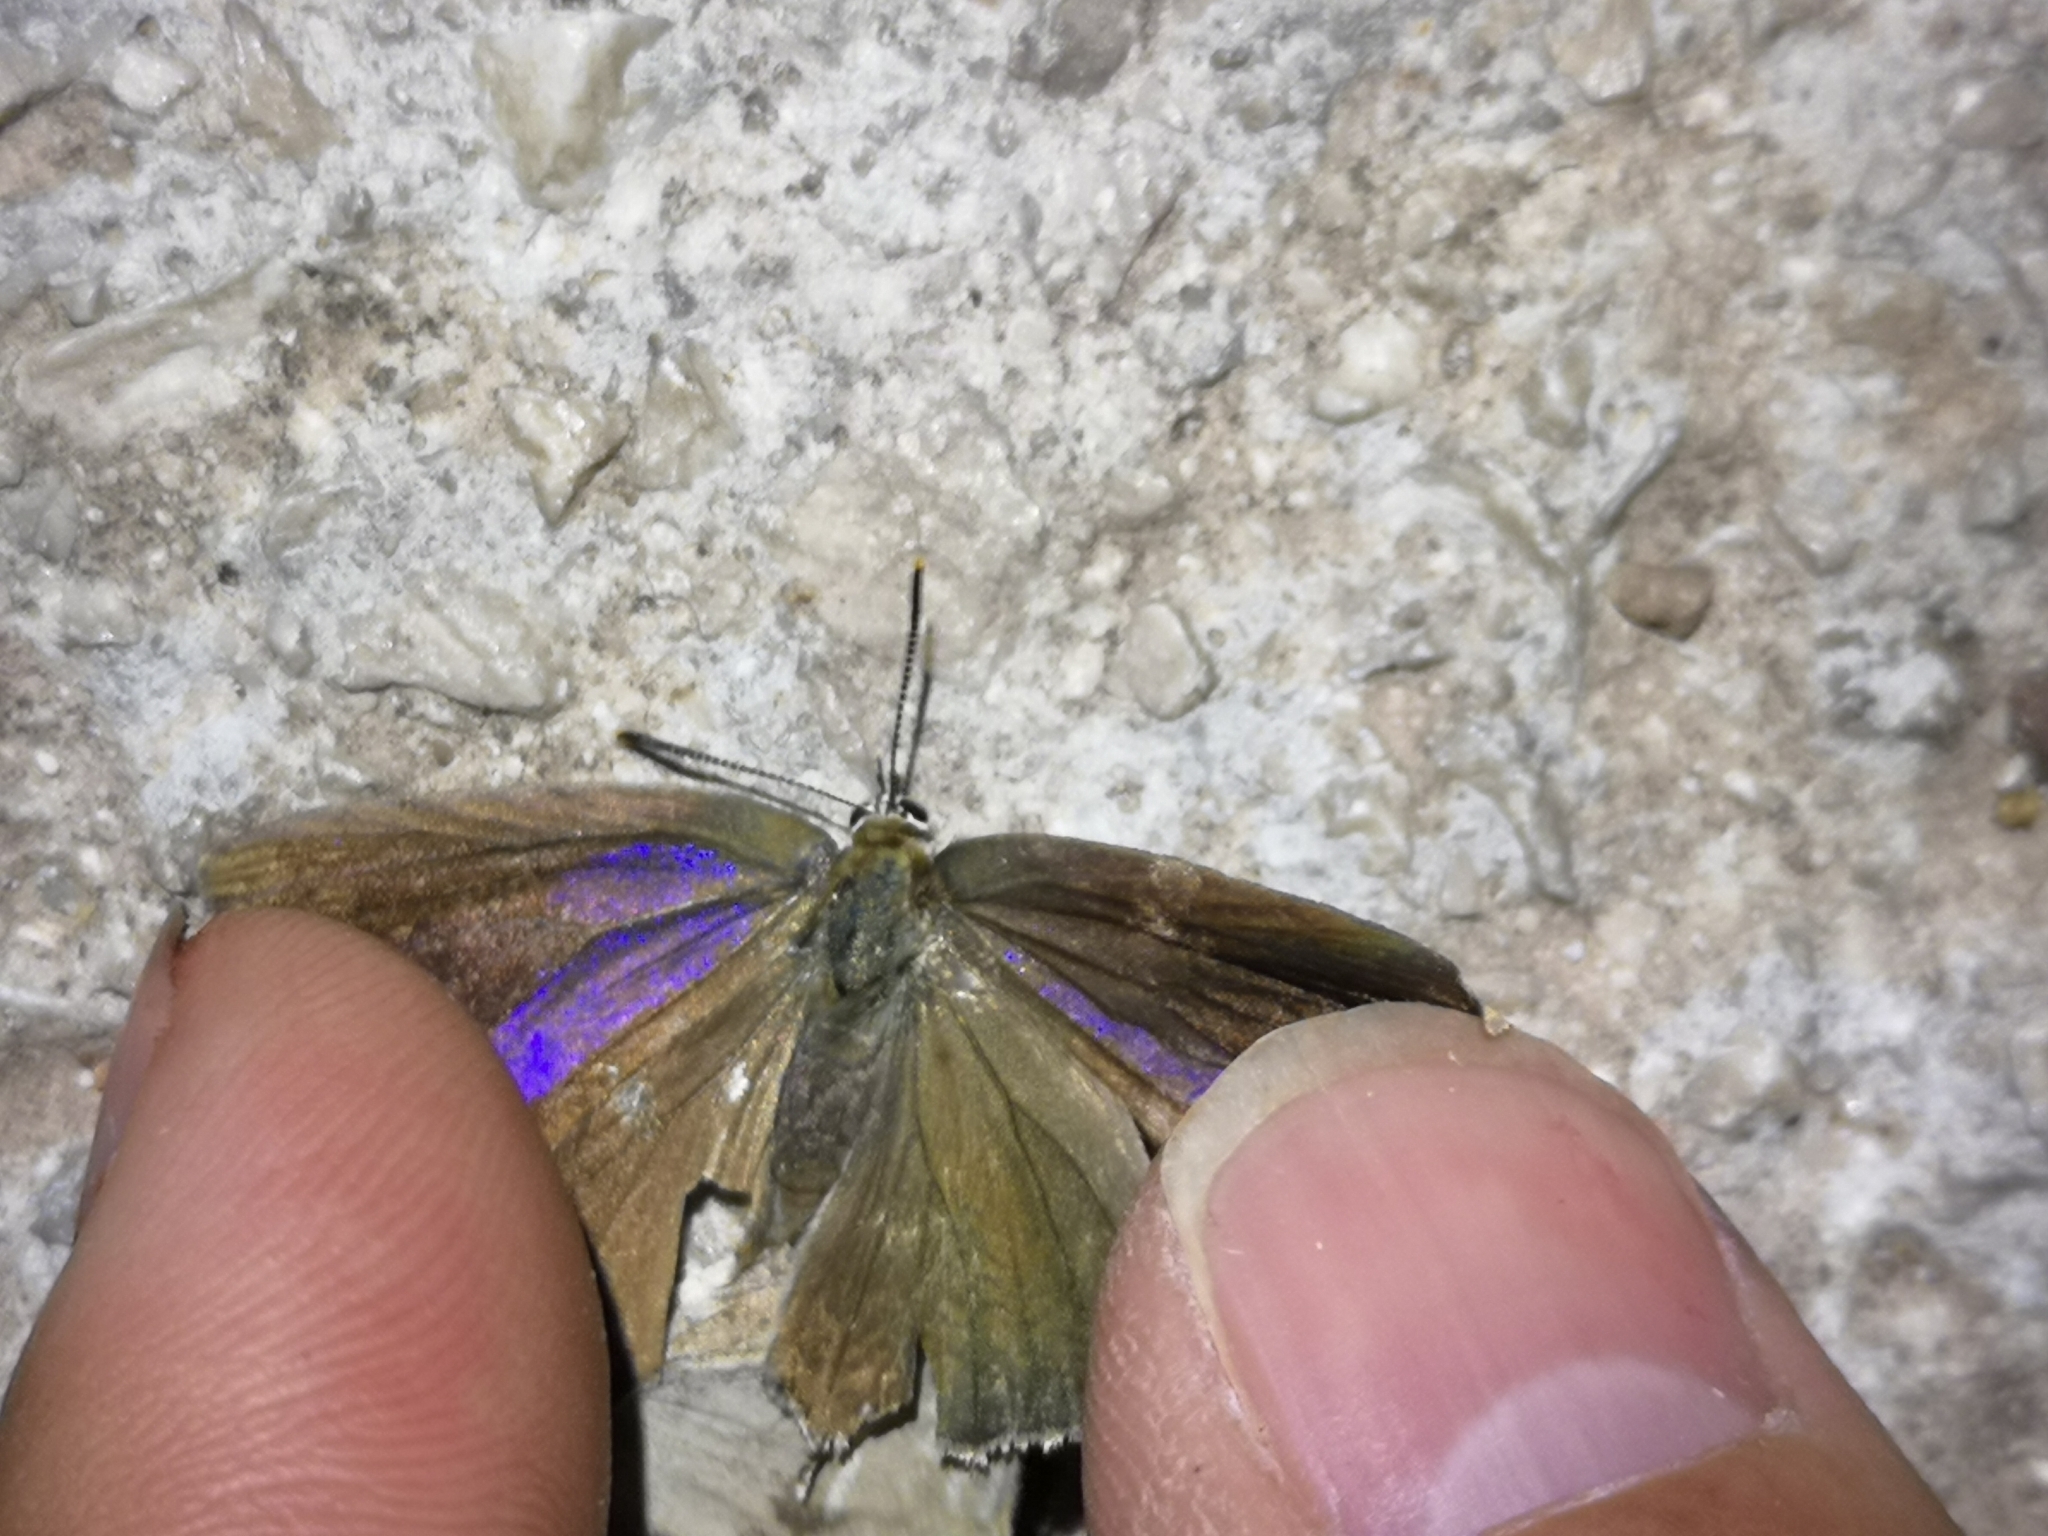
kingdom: Animalia
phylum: Arthropoda
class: Insecta
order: Lepidoptera
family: Lycaenidae
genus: Quercusia
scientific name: Quercusia quercus
